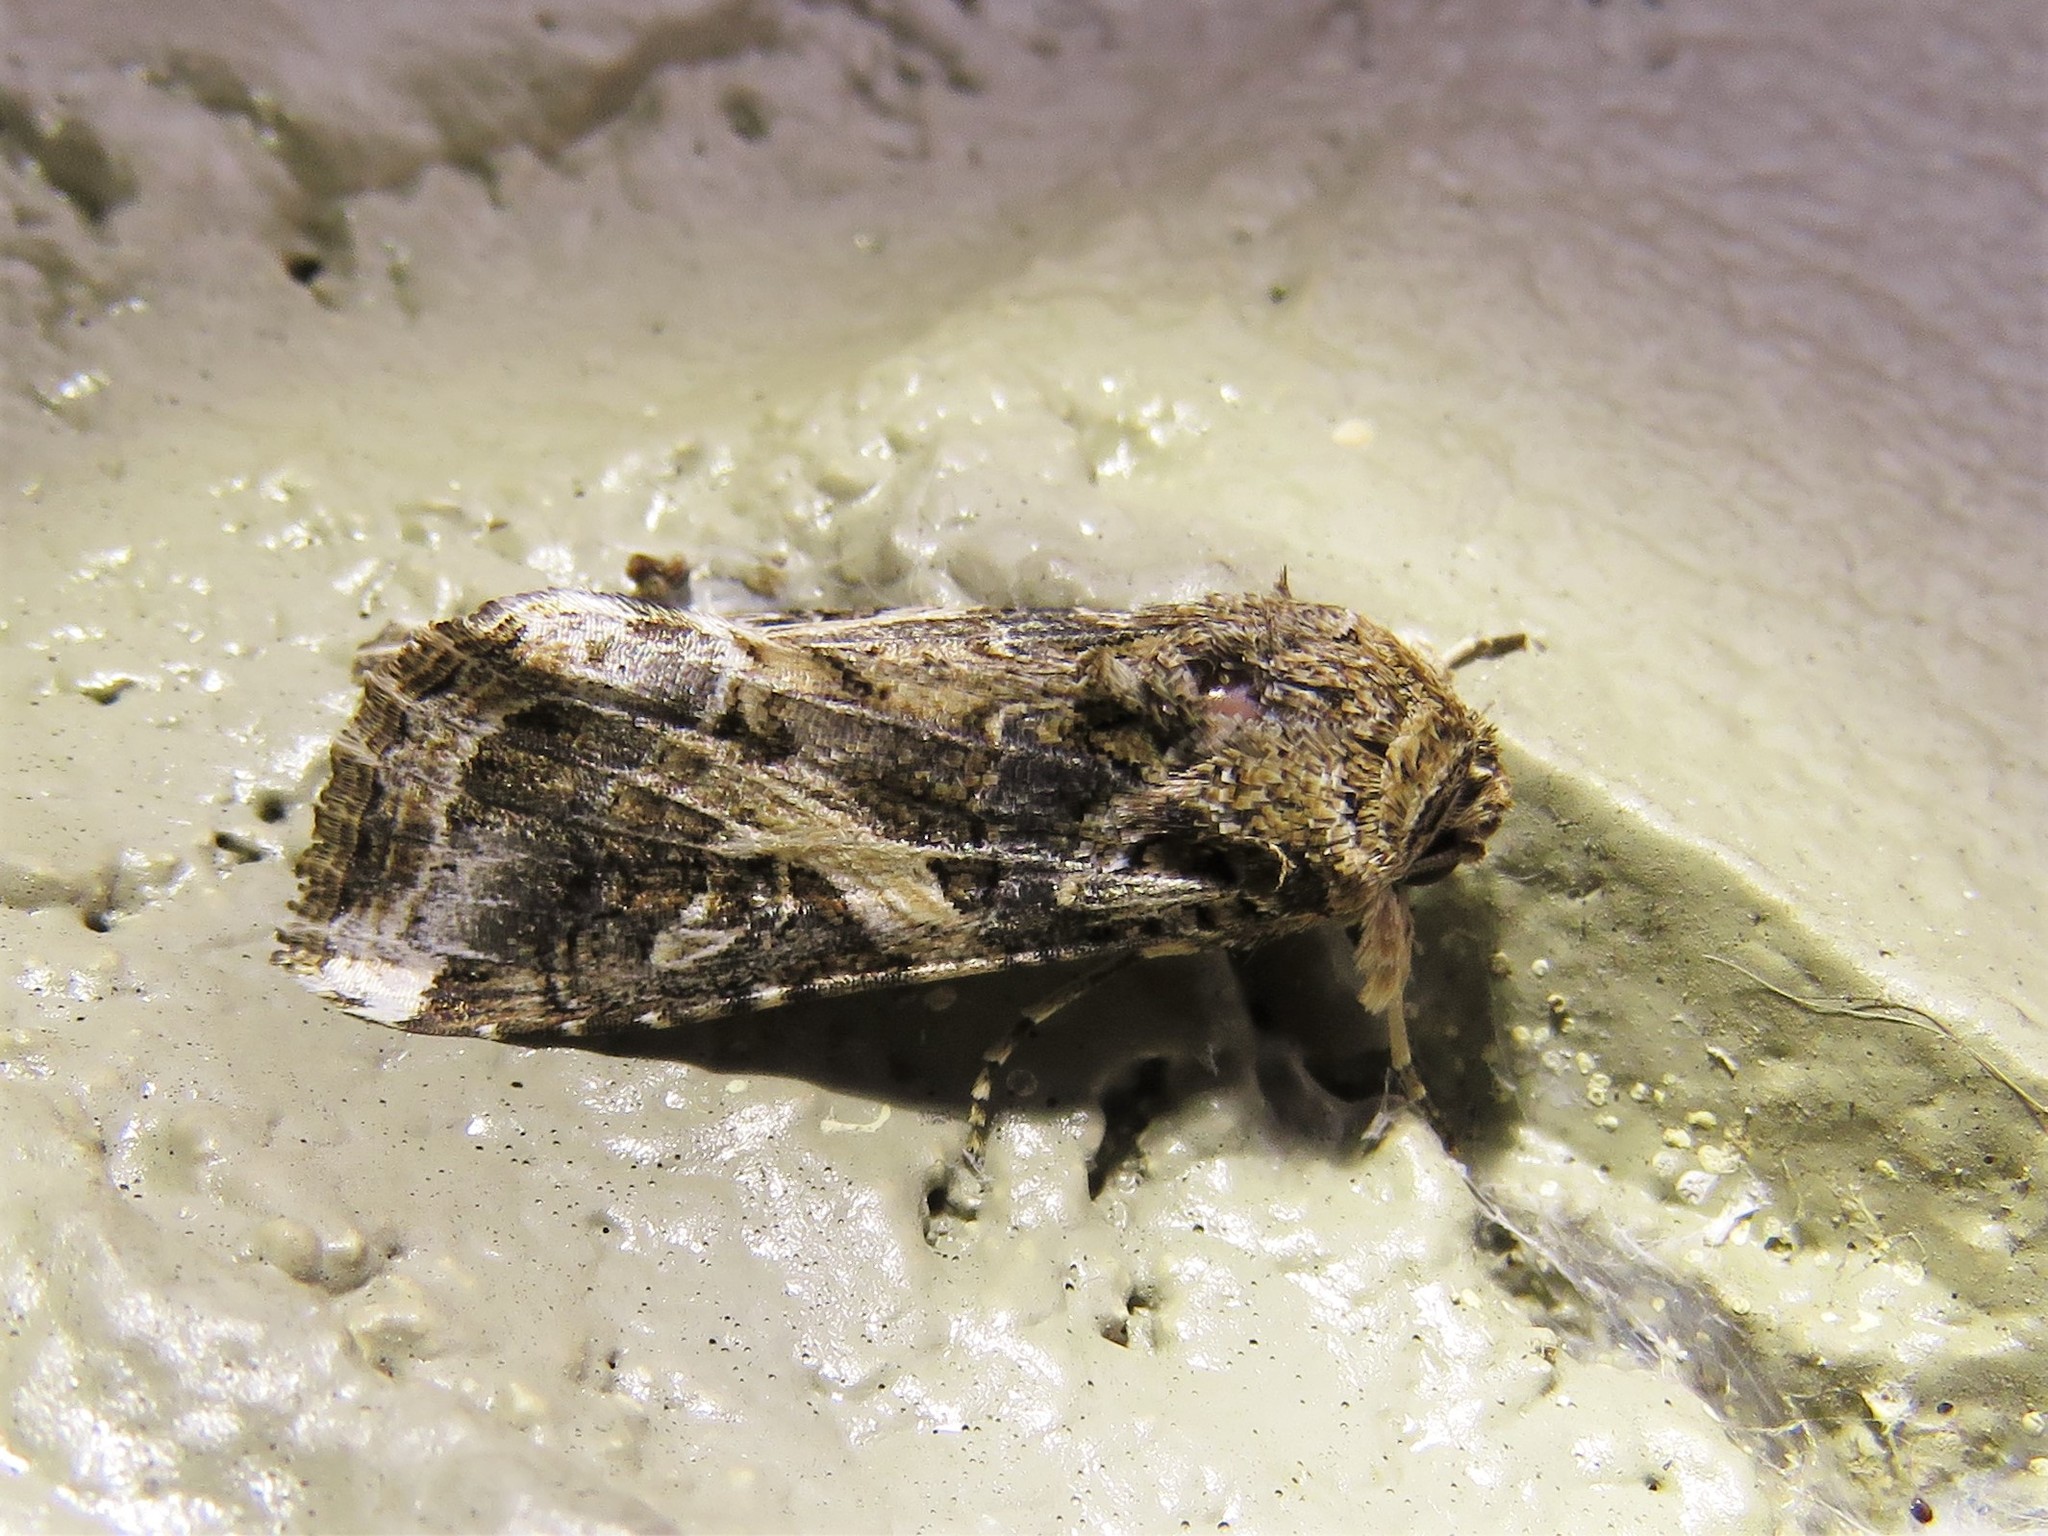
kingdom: Animalia
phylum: Arthropoda
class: Insecta
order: Lepidoptera
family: Noctuidae
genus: Spodoptera
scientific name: Spodoptera ornithogalli
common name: Yellow-striped armyworm
